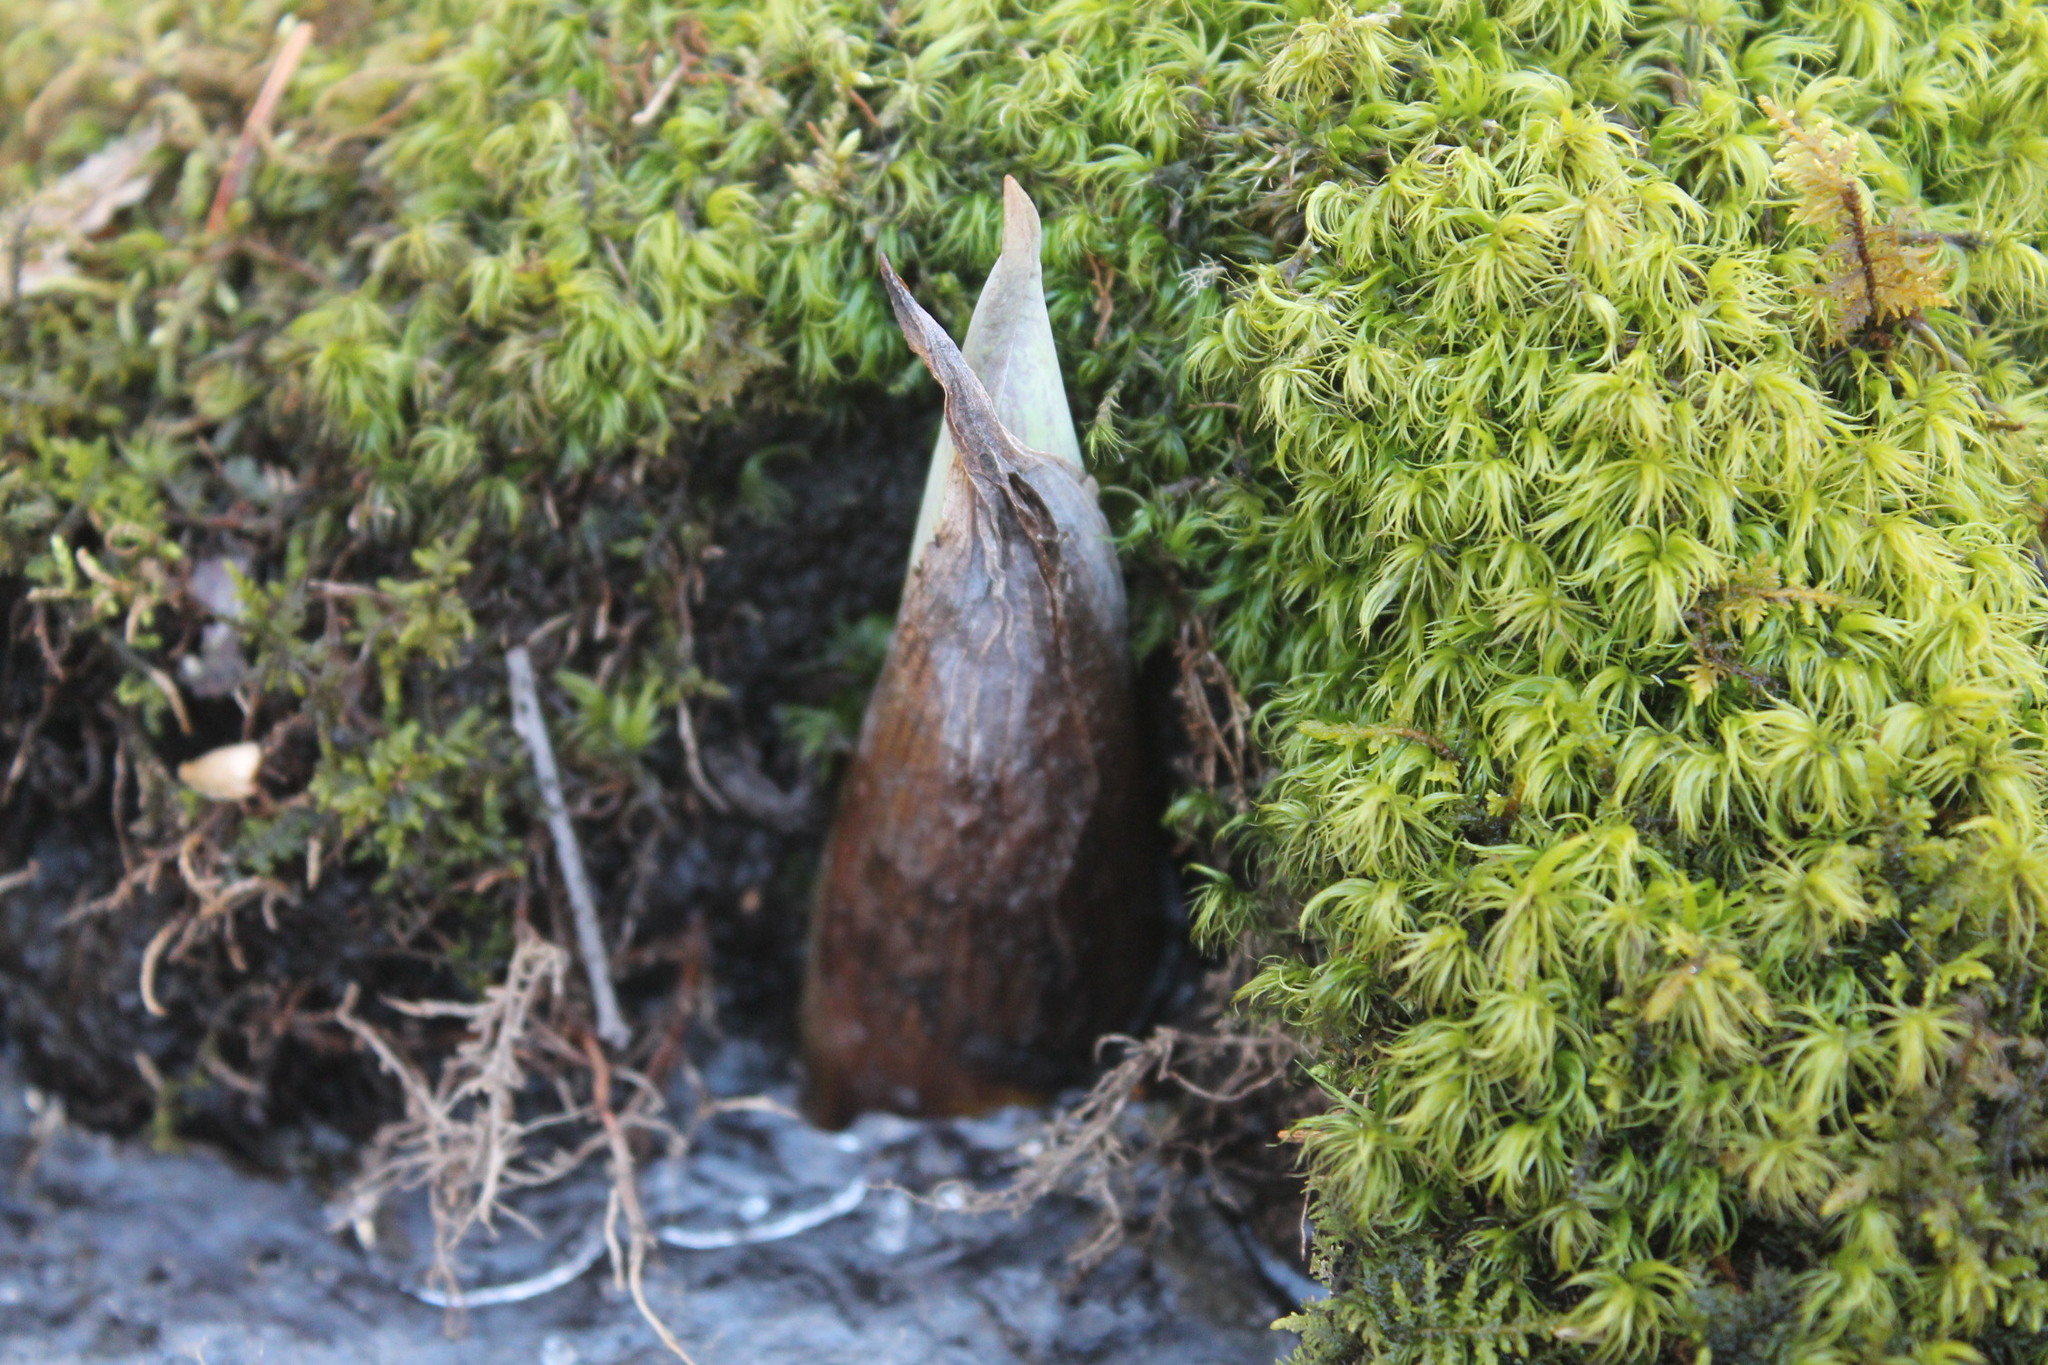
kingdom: Plantae
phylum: Tracheophyta
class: Liliopsida
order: Alismatales
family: Araceae
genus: Symplocarpus
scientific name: Symplocarpus foetidus
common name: Eastern skunk cabbage
